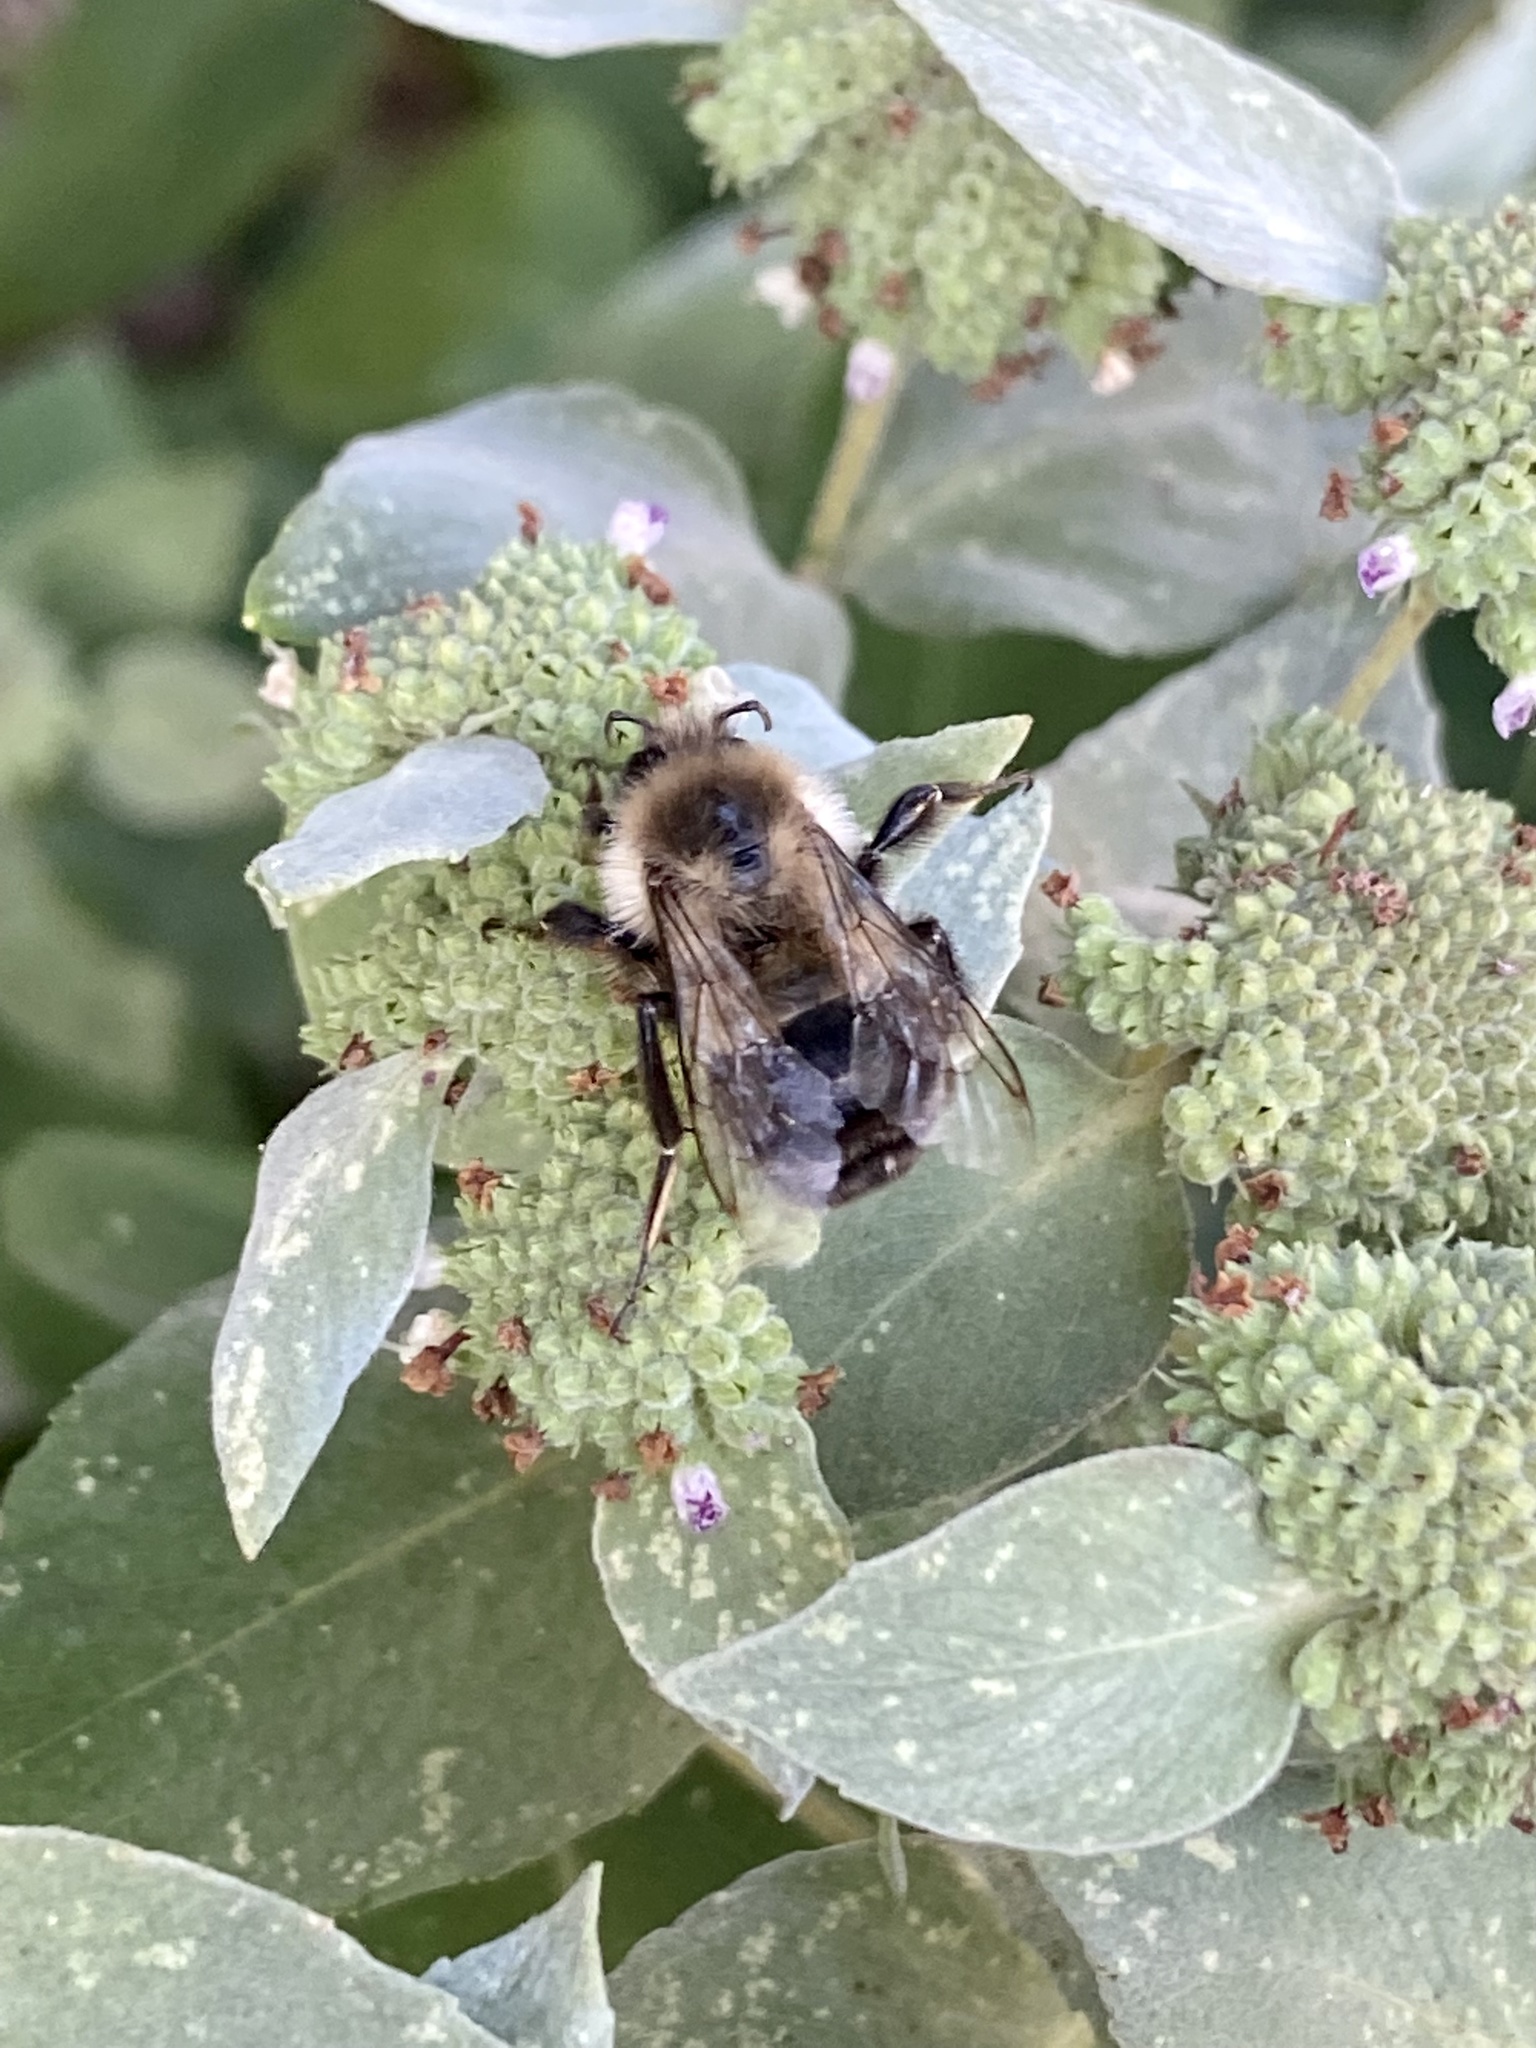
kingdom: Animalia
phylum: Arthropoda
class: Insecta
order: Hymenoptera
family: Apidae
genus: Bombus
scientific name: Bombus impatiens
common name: Common eastern bumble bee
